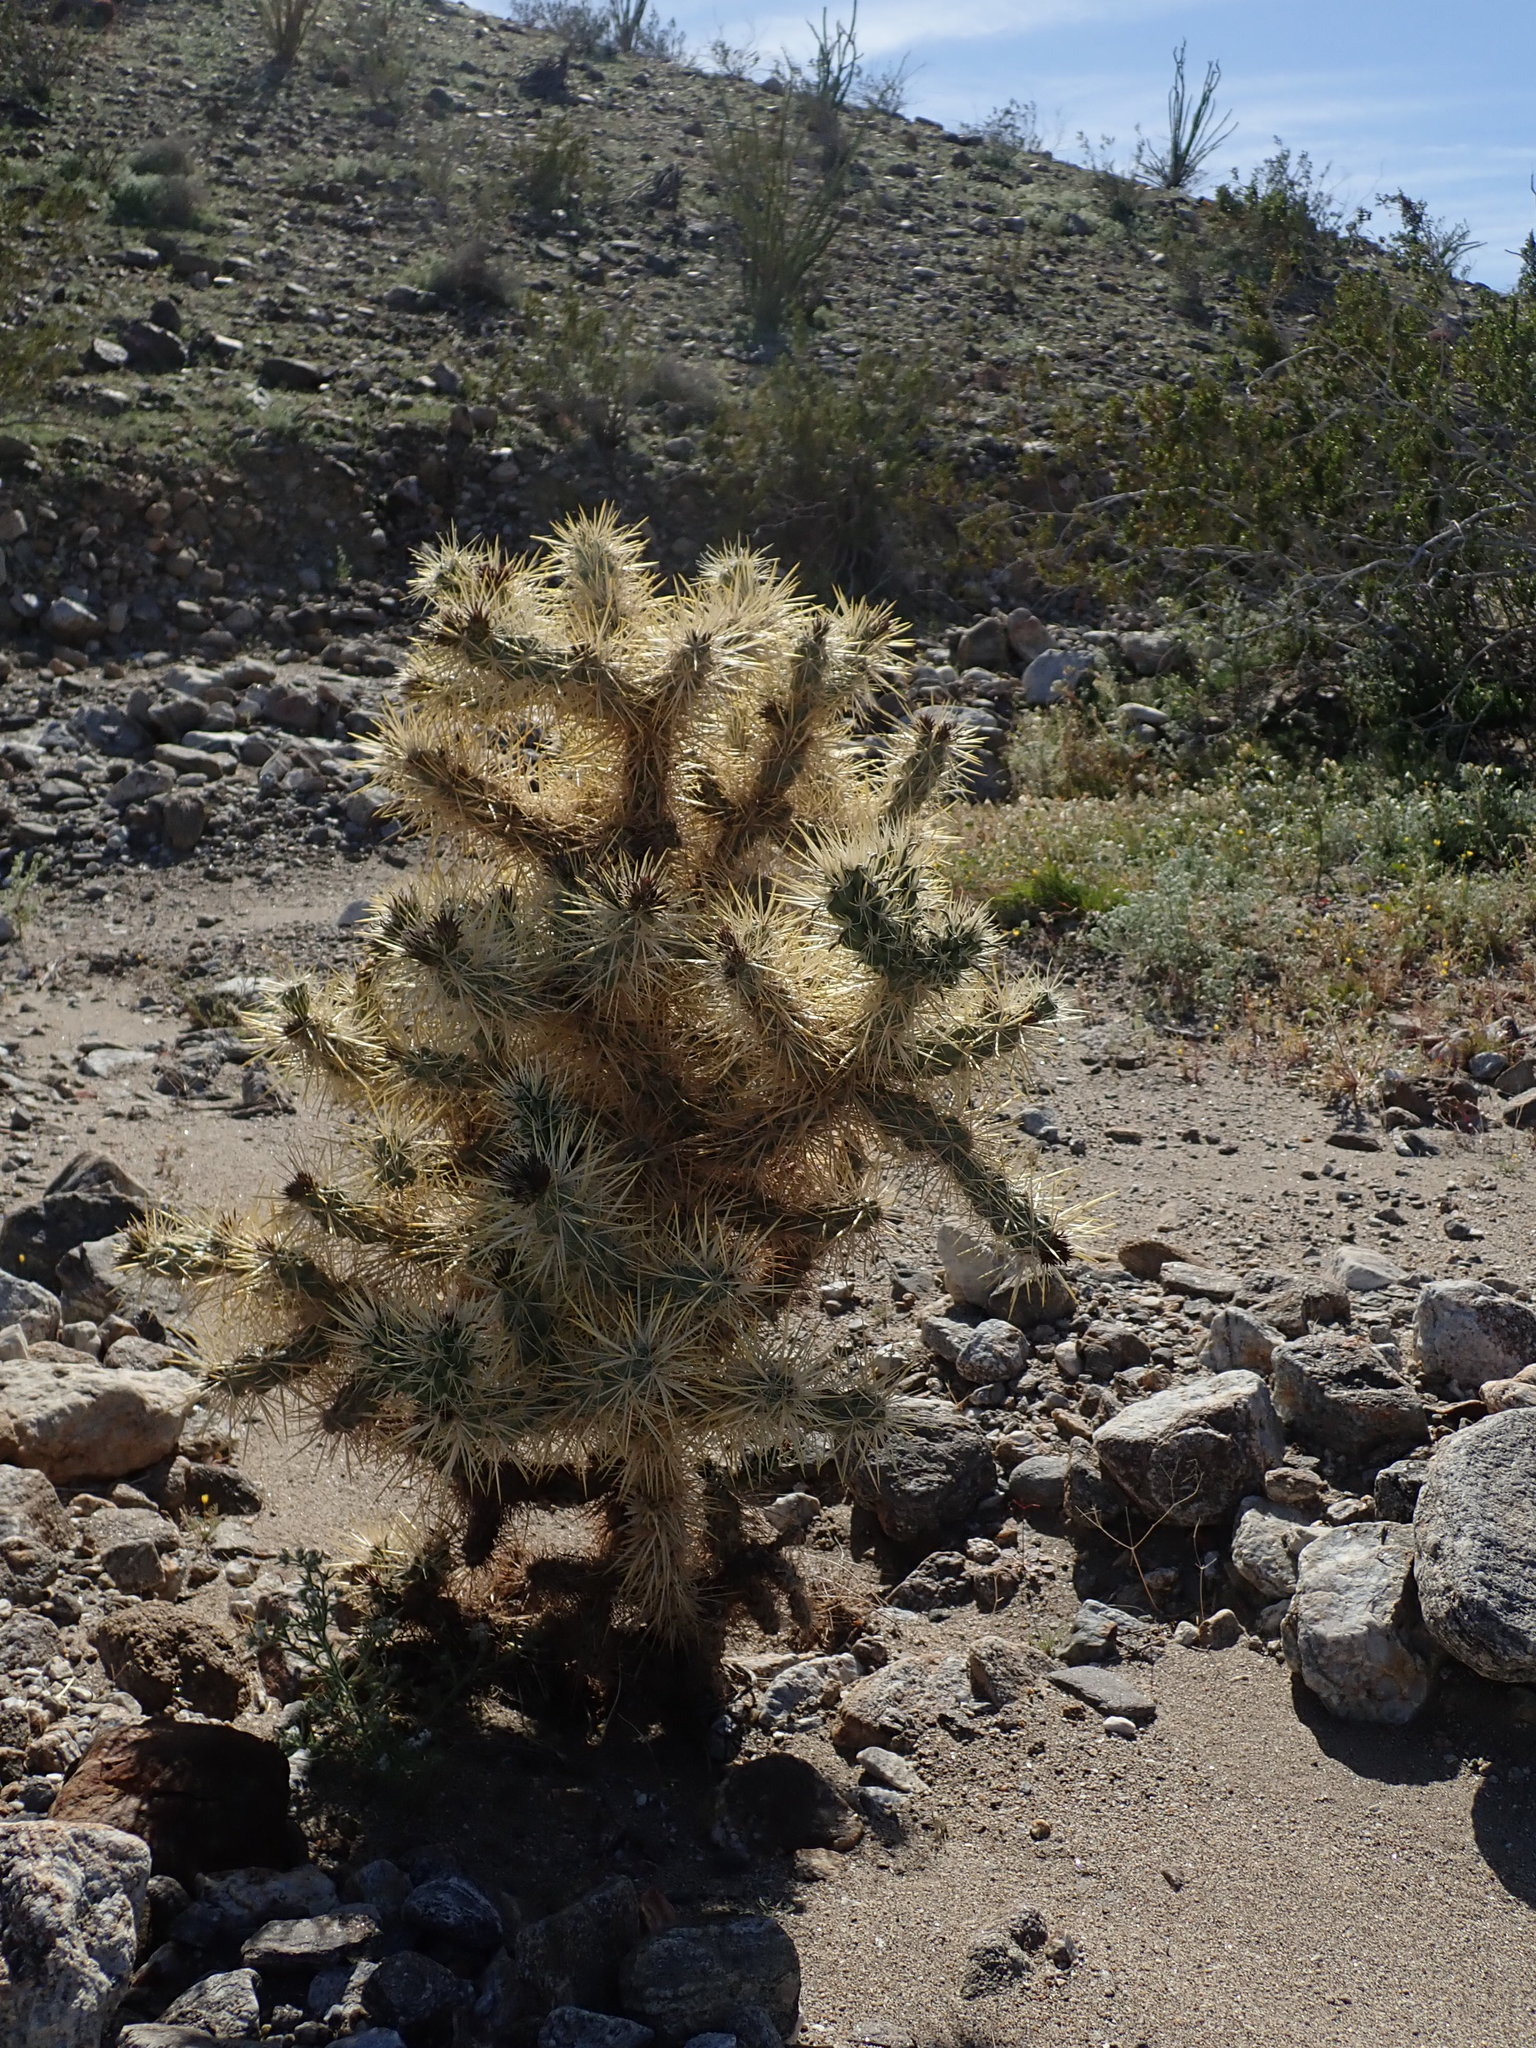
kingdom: Plantae
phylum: Tracheophyta
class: Magnoliopsida
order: Caryophyllales
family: Cactaceae
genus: Cylindropuntia
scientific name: Cylindropuntia echinocarpa
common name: Ground cholla
